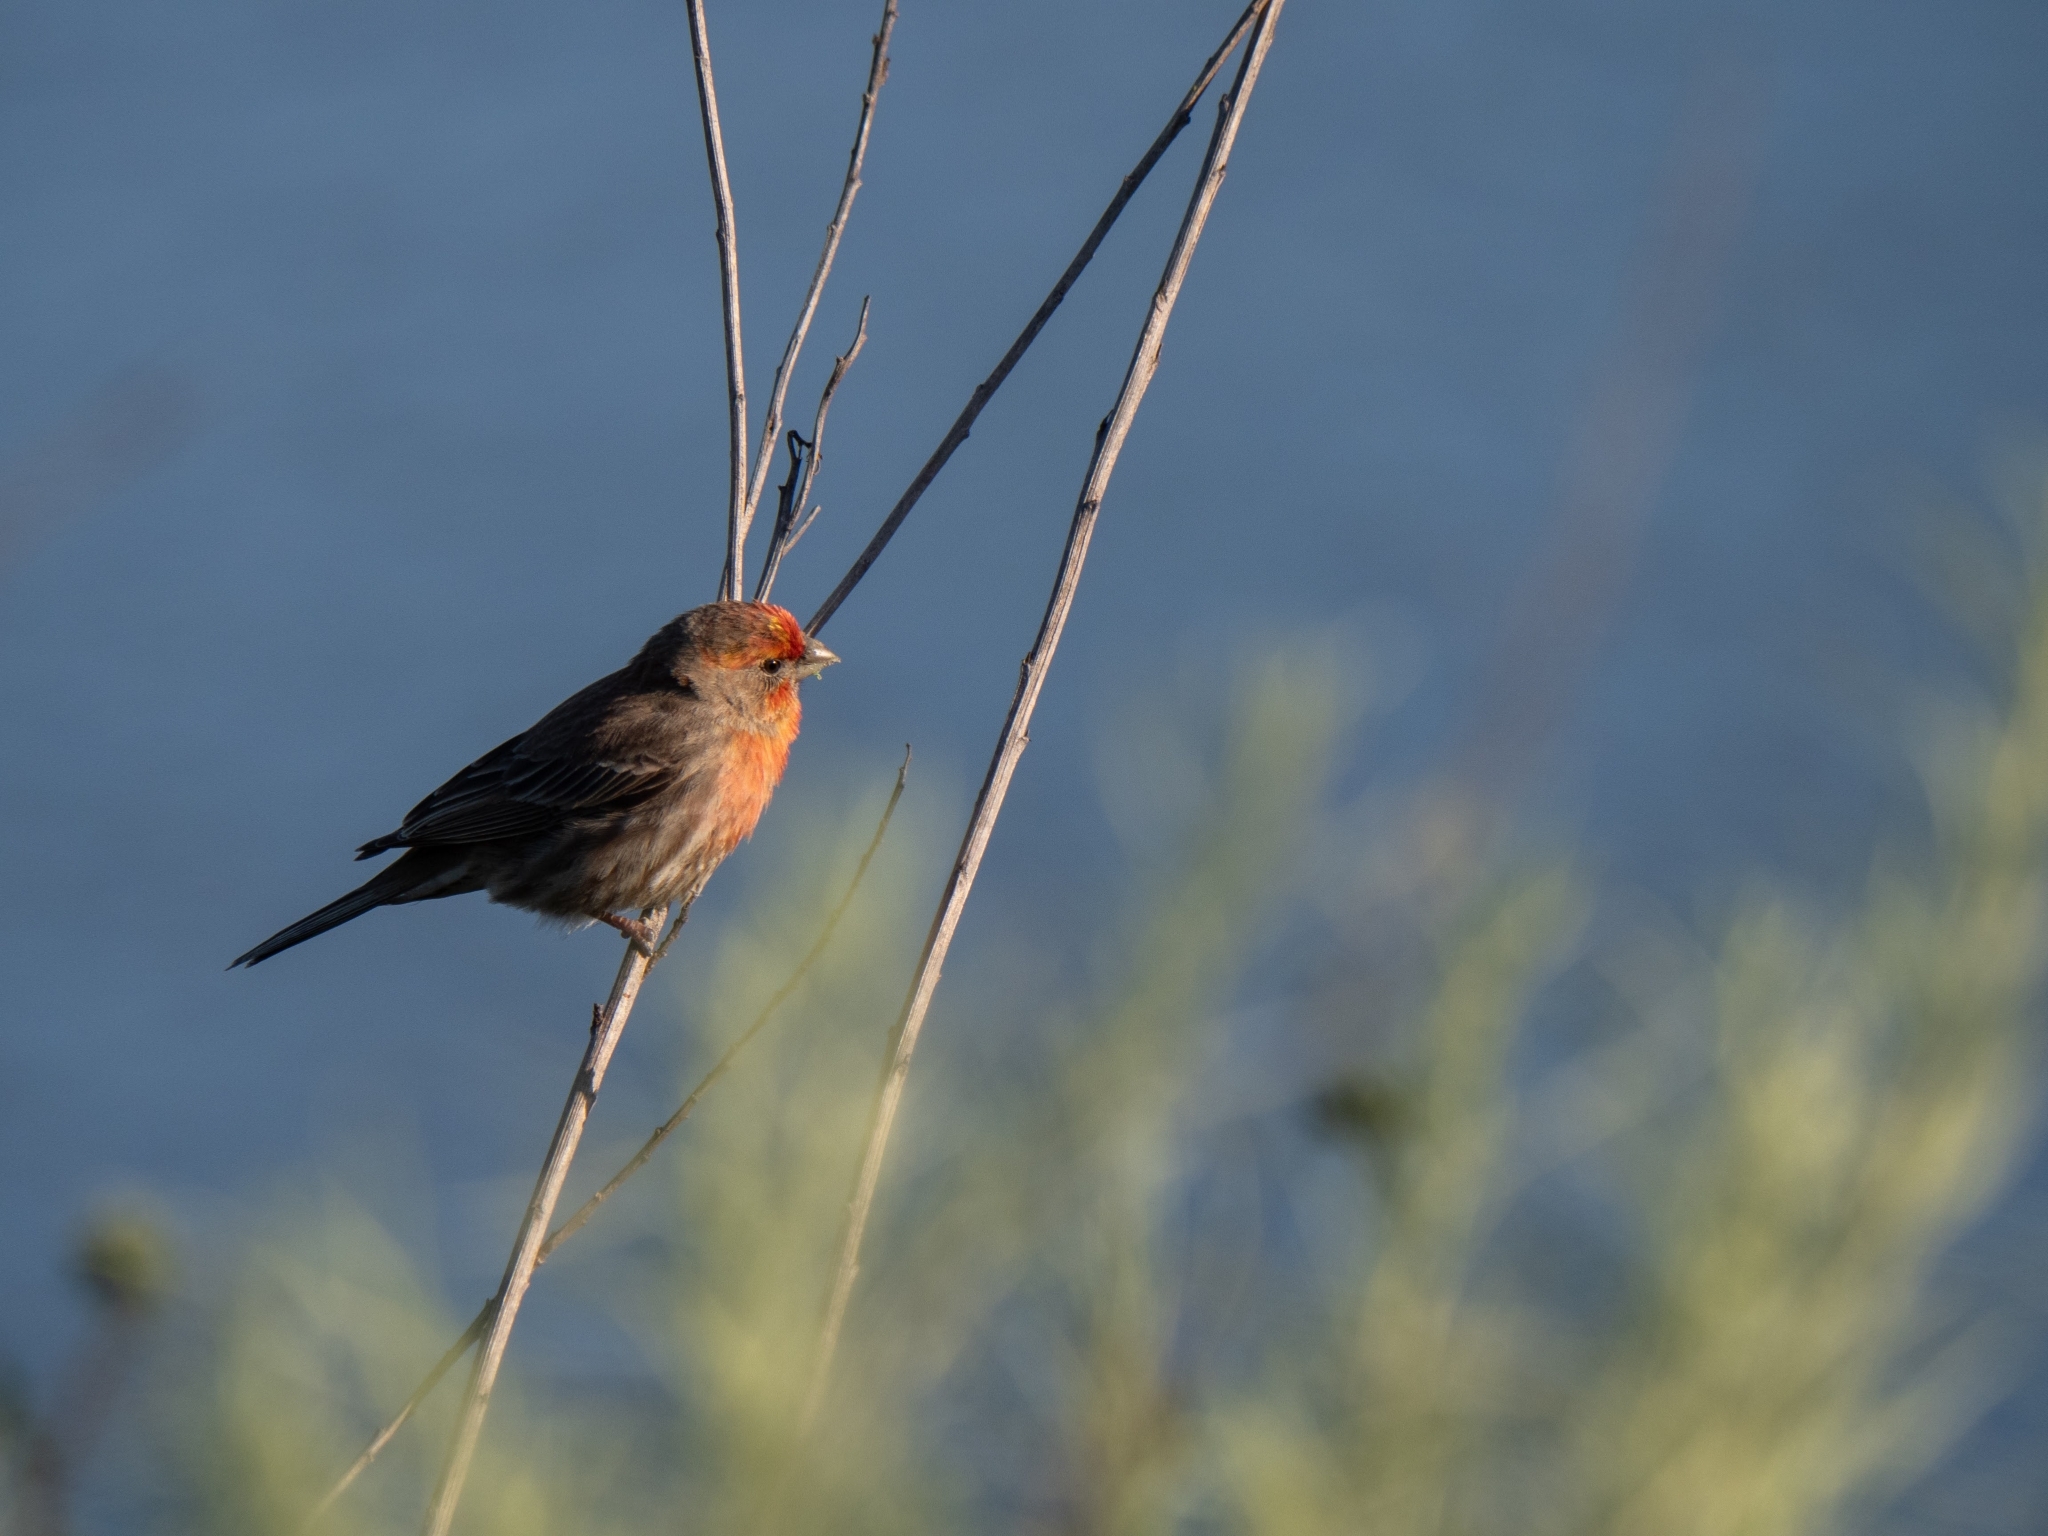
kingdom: Animalia
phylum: Chordata
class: Aves
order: Passeriformes
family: Fringillidae
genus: Haemorhous
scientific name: Haemorhous mexicanus
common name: House finch
